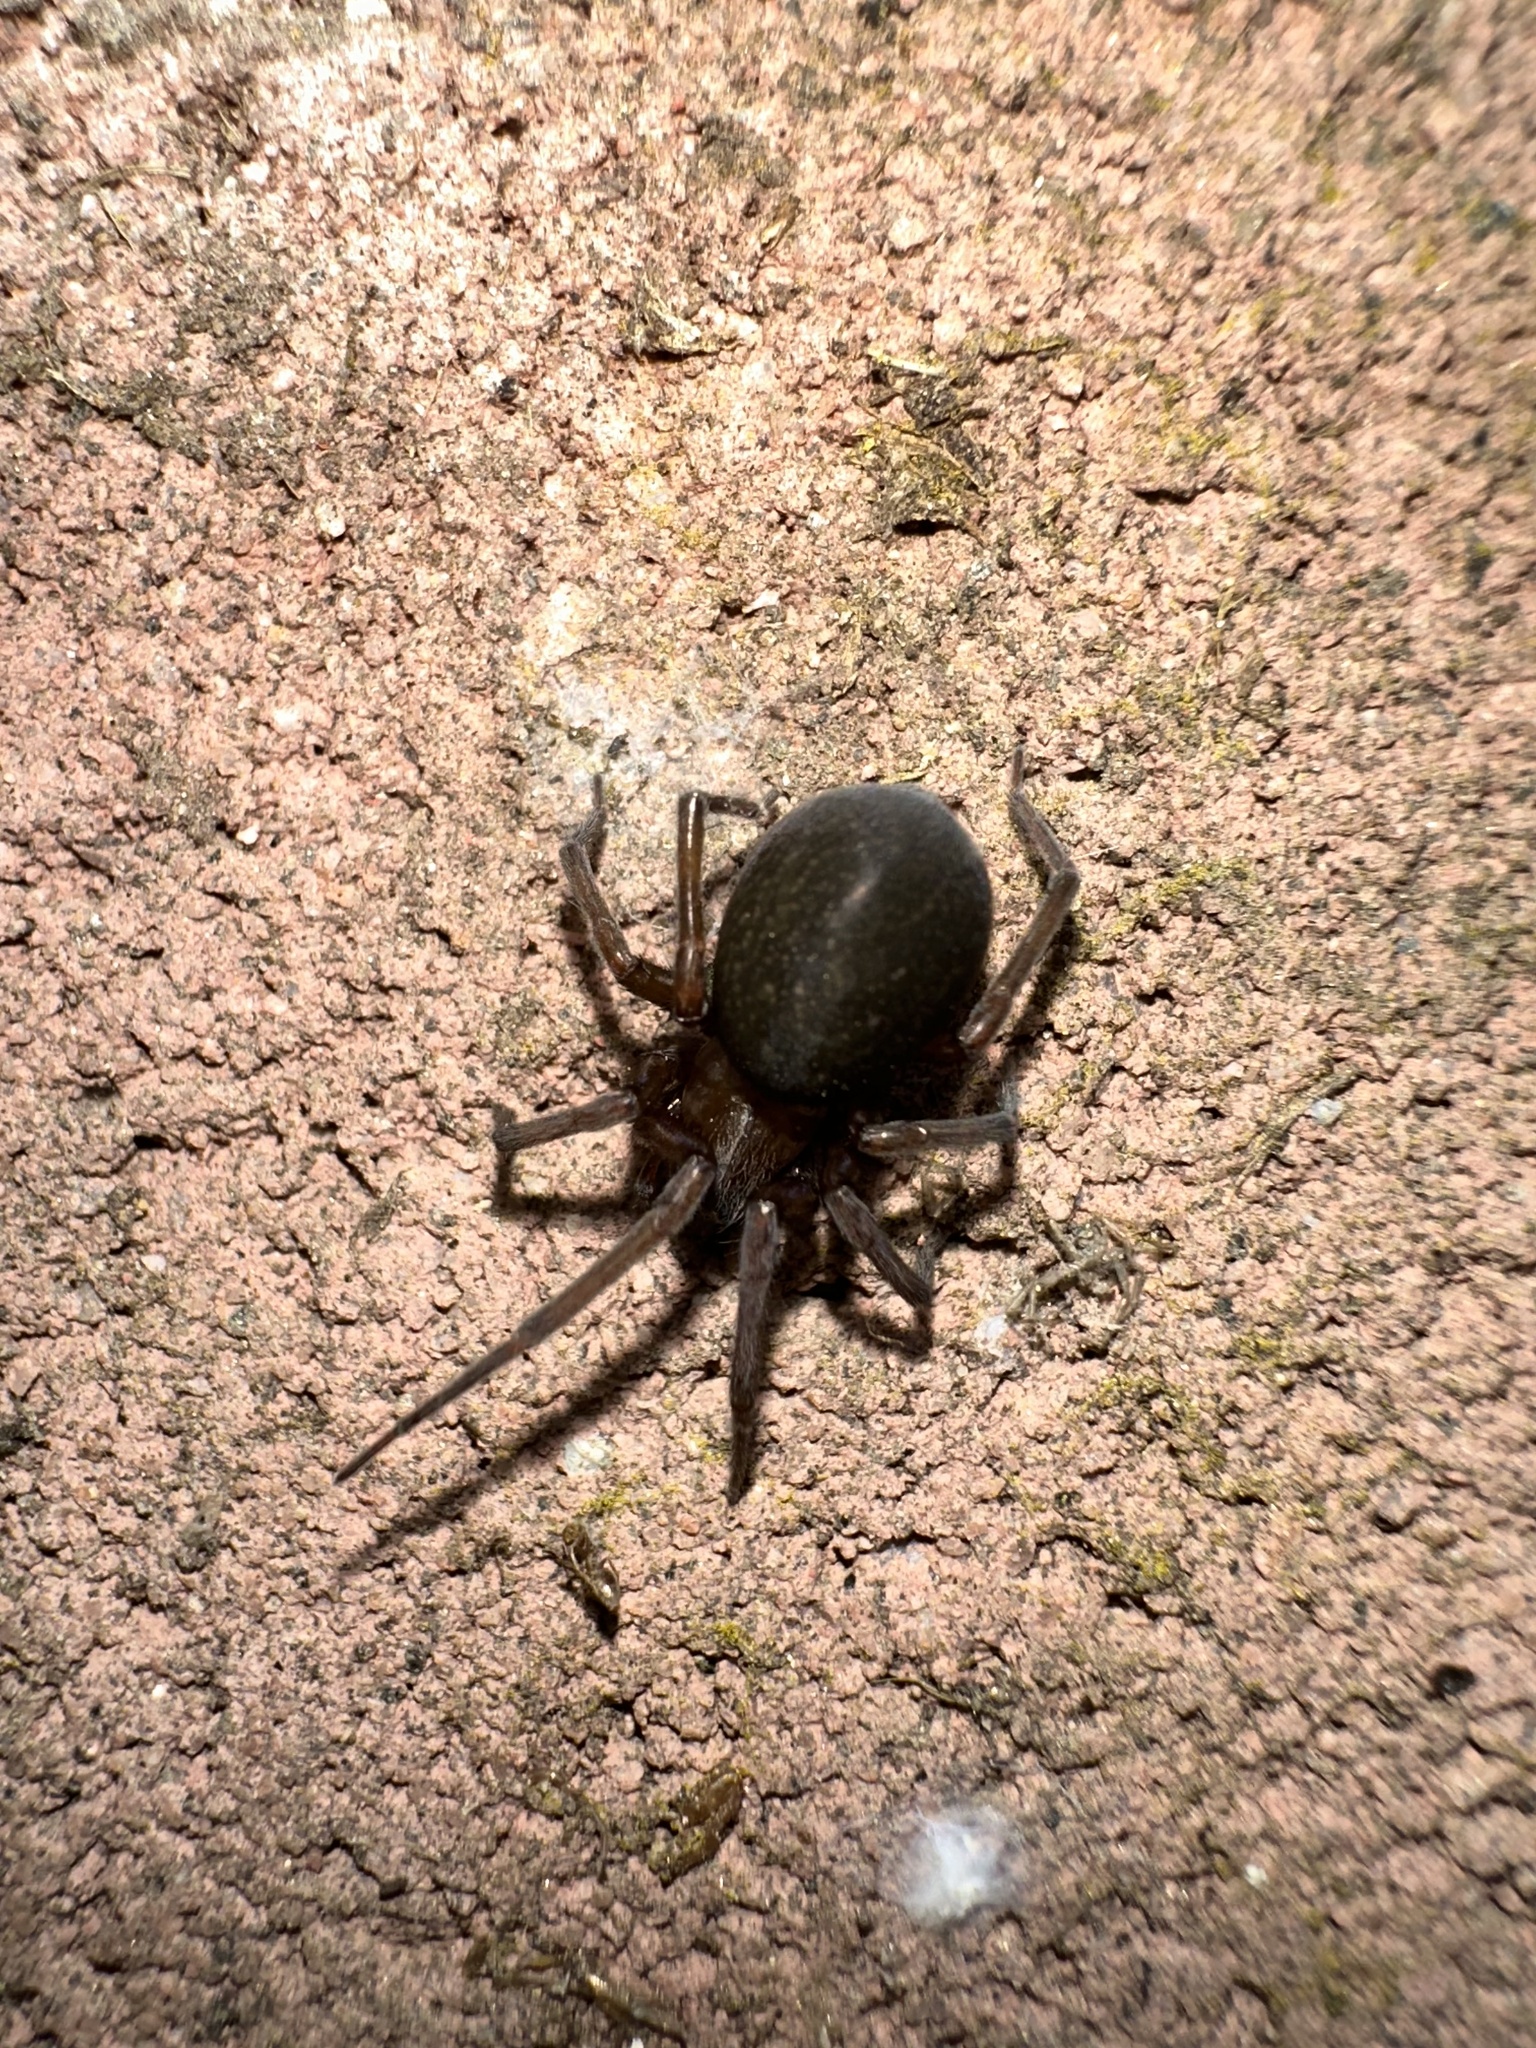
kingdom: Animalia
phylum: Arthropoda
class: Arachnida
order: Araneae
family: Desidae
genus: Metaltella
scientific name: Metaltella simoni
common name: Cribellate spider
